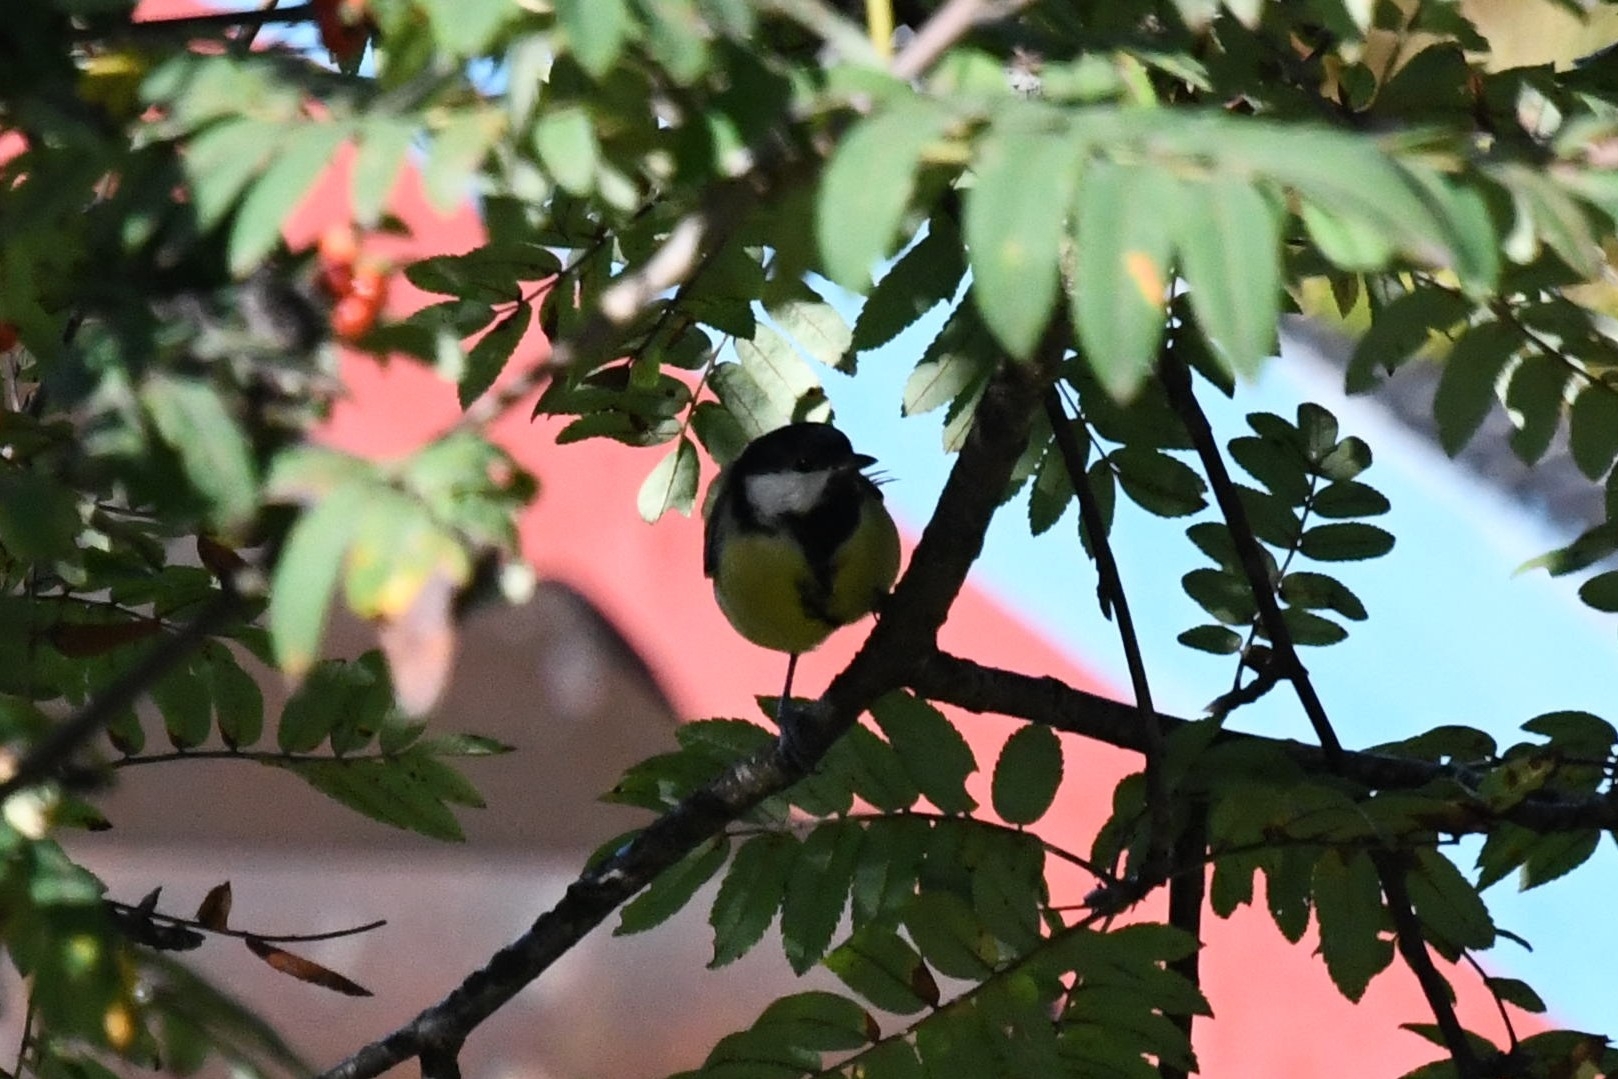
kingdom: Animalia
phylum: Chordata
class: Aves
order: Passeriformes
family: Paridae
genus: Parus
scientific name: Parus major
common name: Great tit
